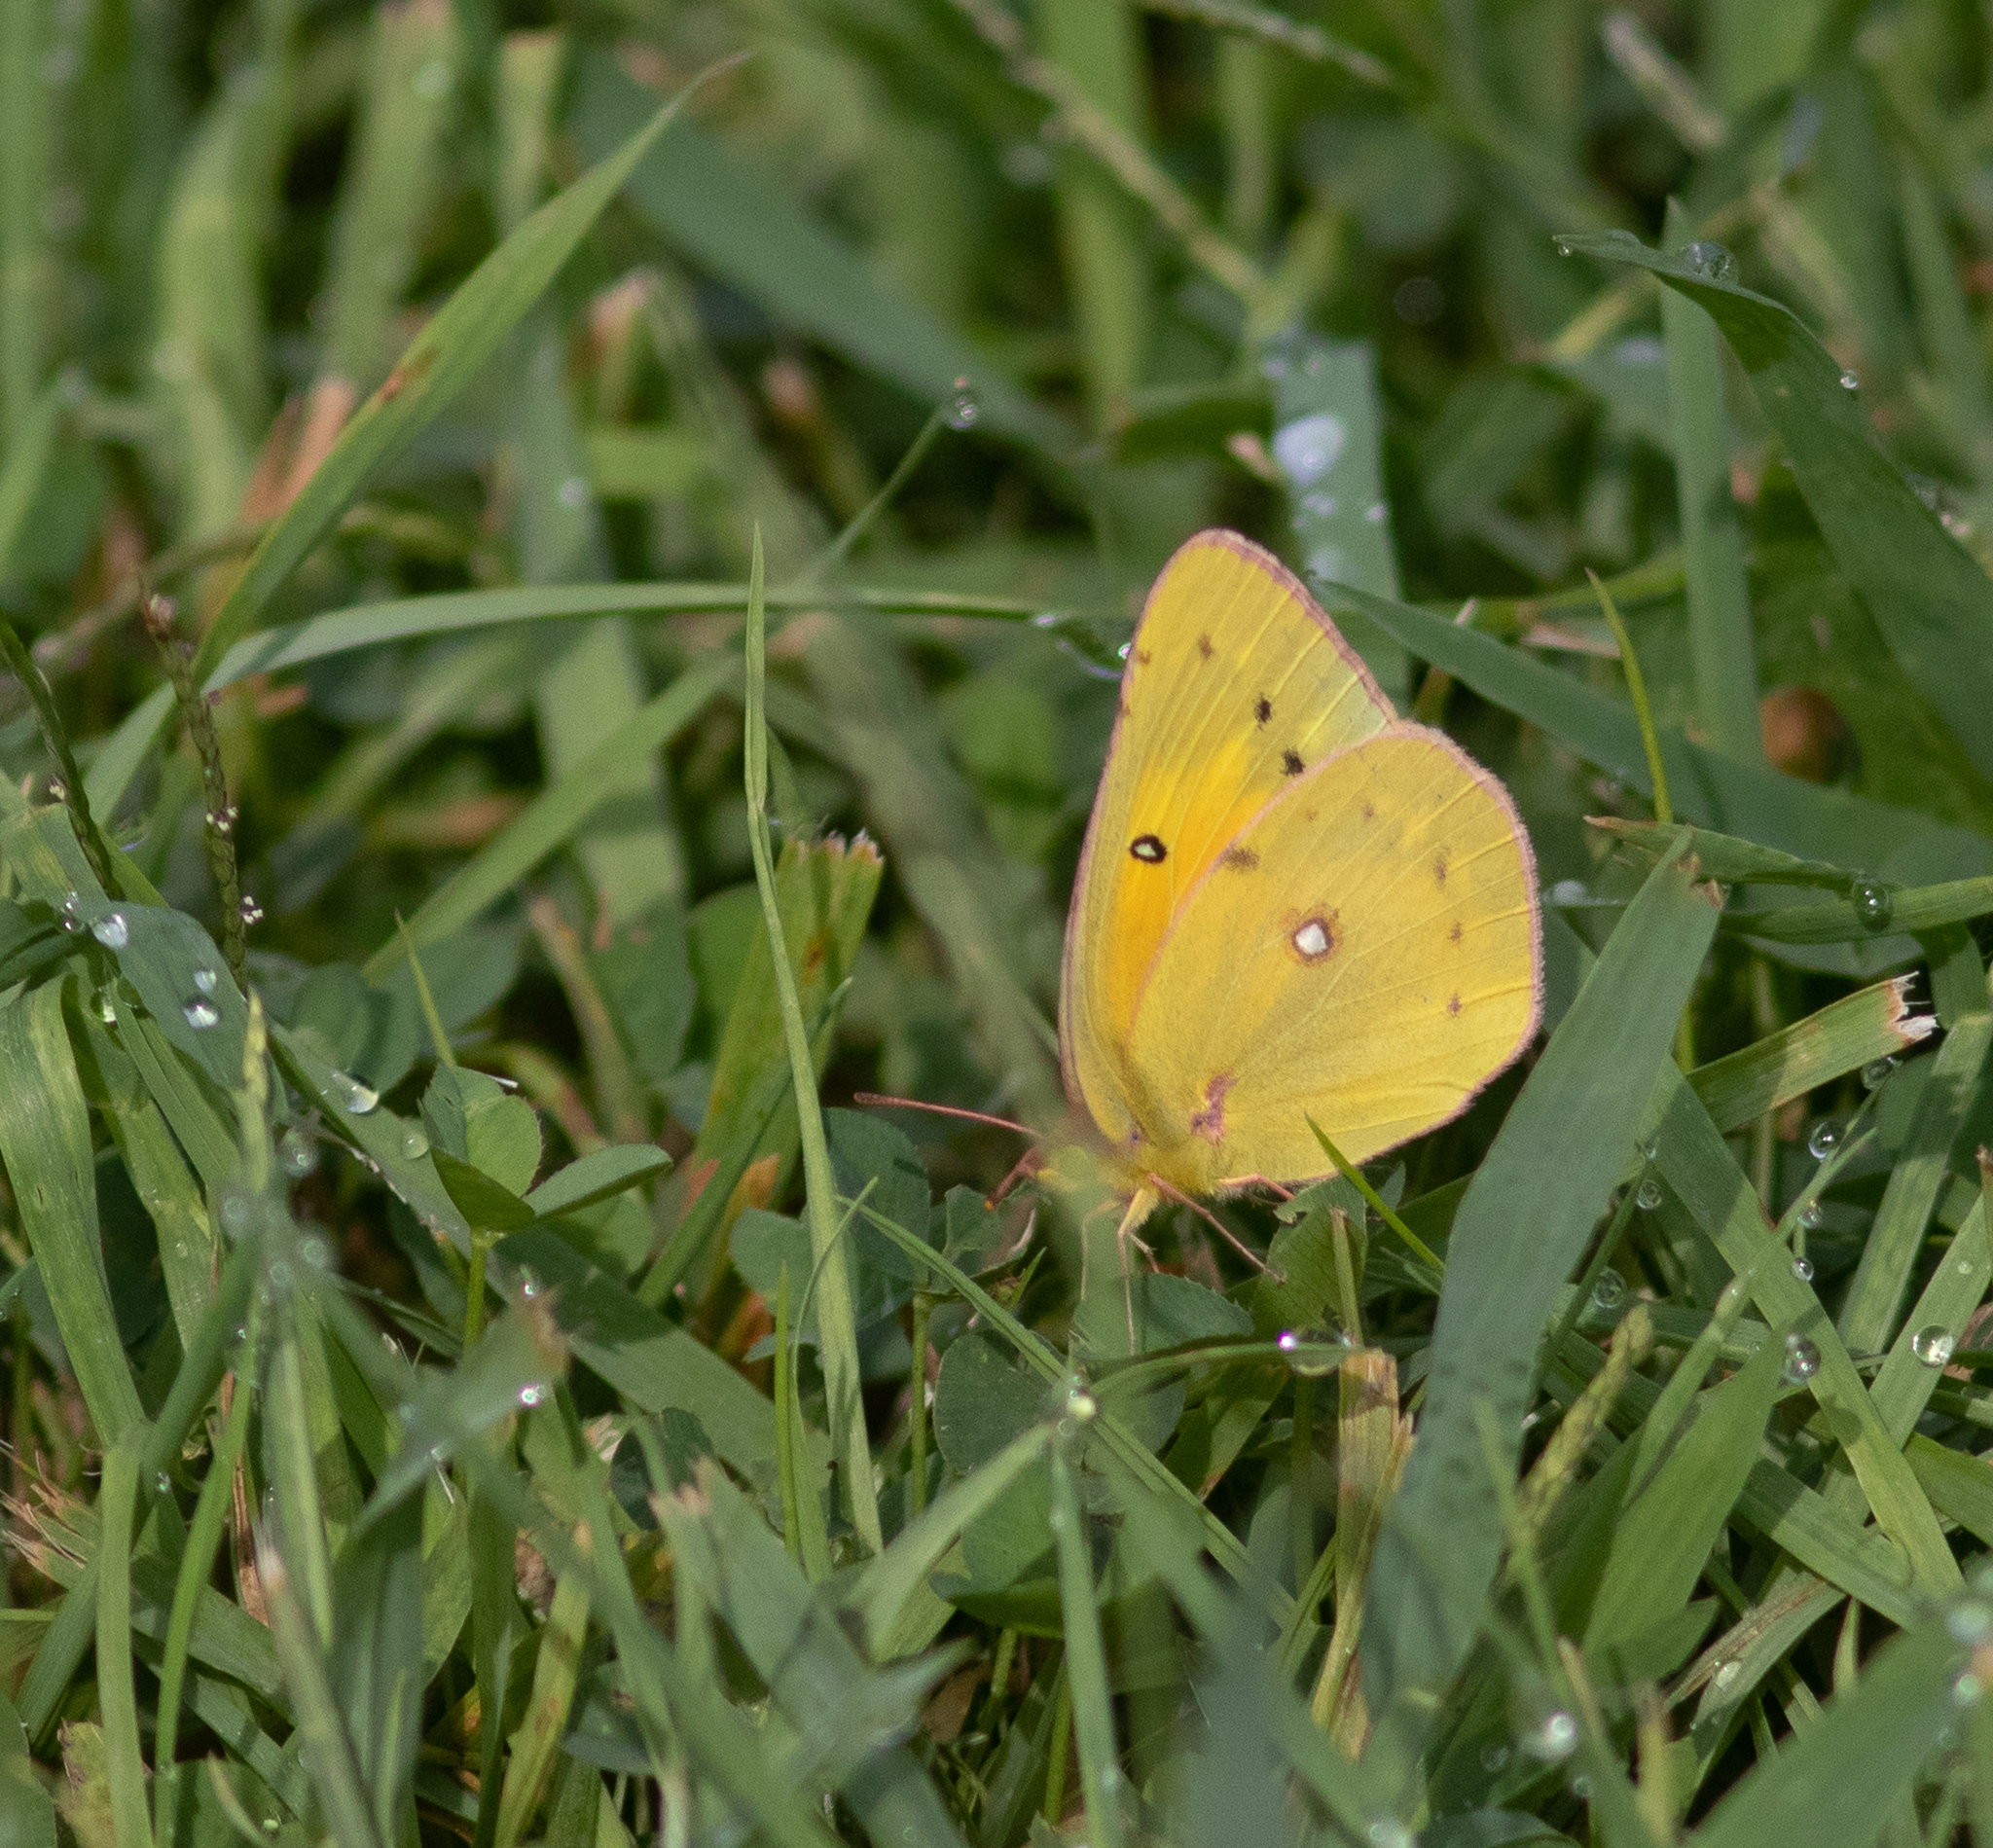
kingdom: Animalia
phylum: Arthropoda
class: Insecta
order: Lepidoptera
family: Pieridae
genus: Colias
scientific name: Colias eurytheme
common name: Alfalfa butterfly
